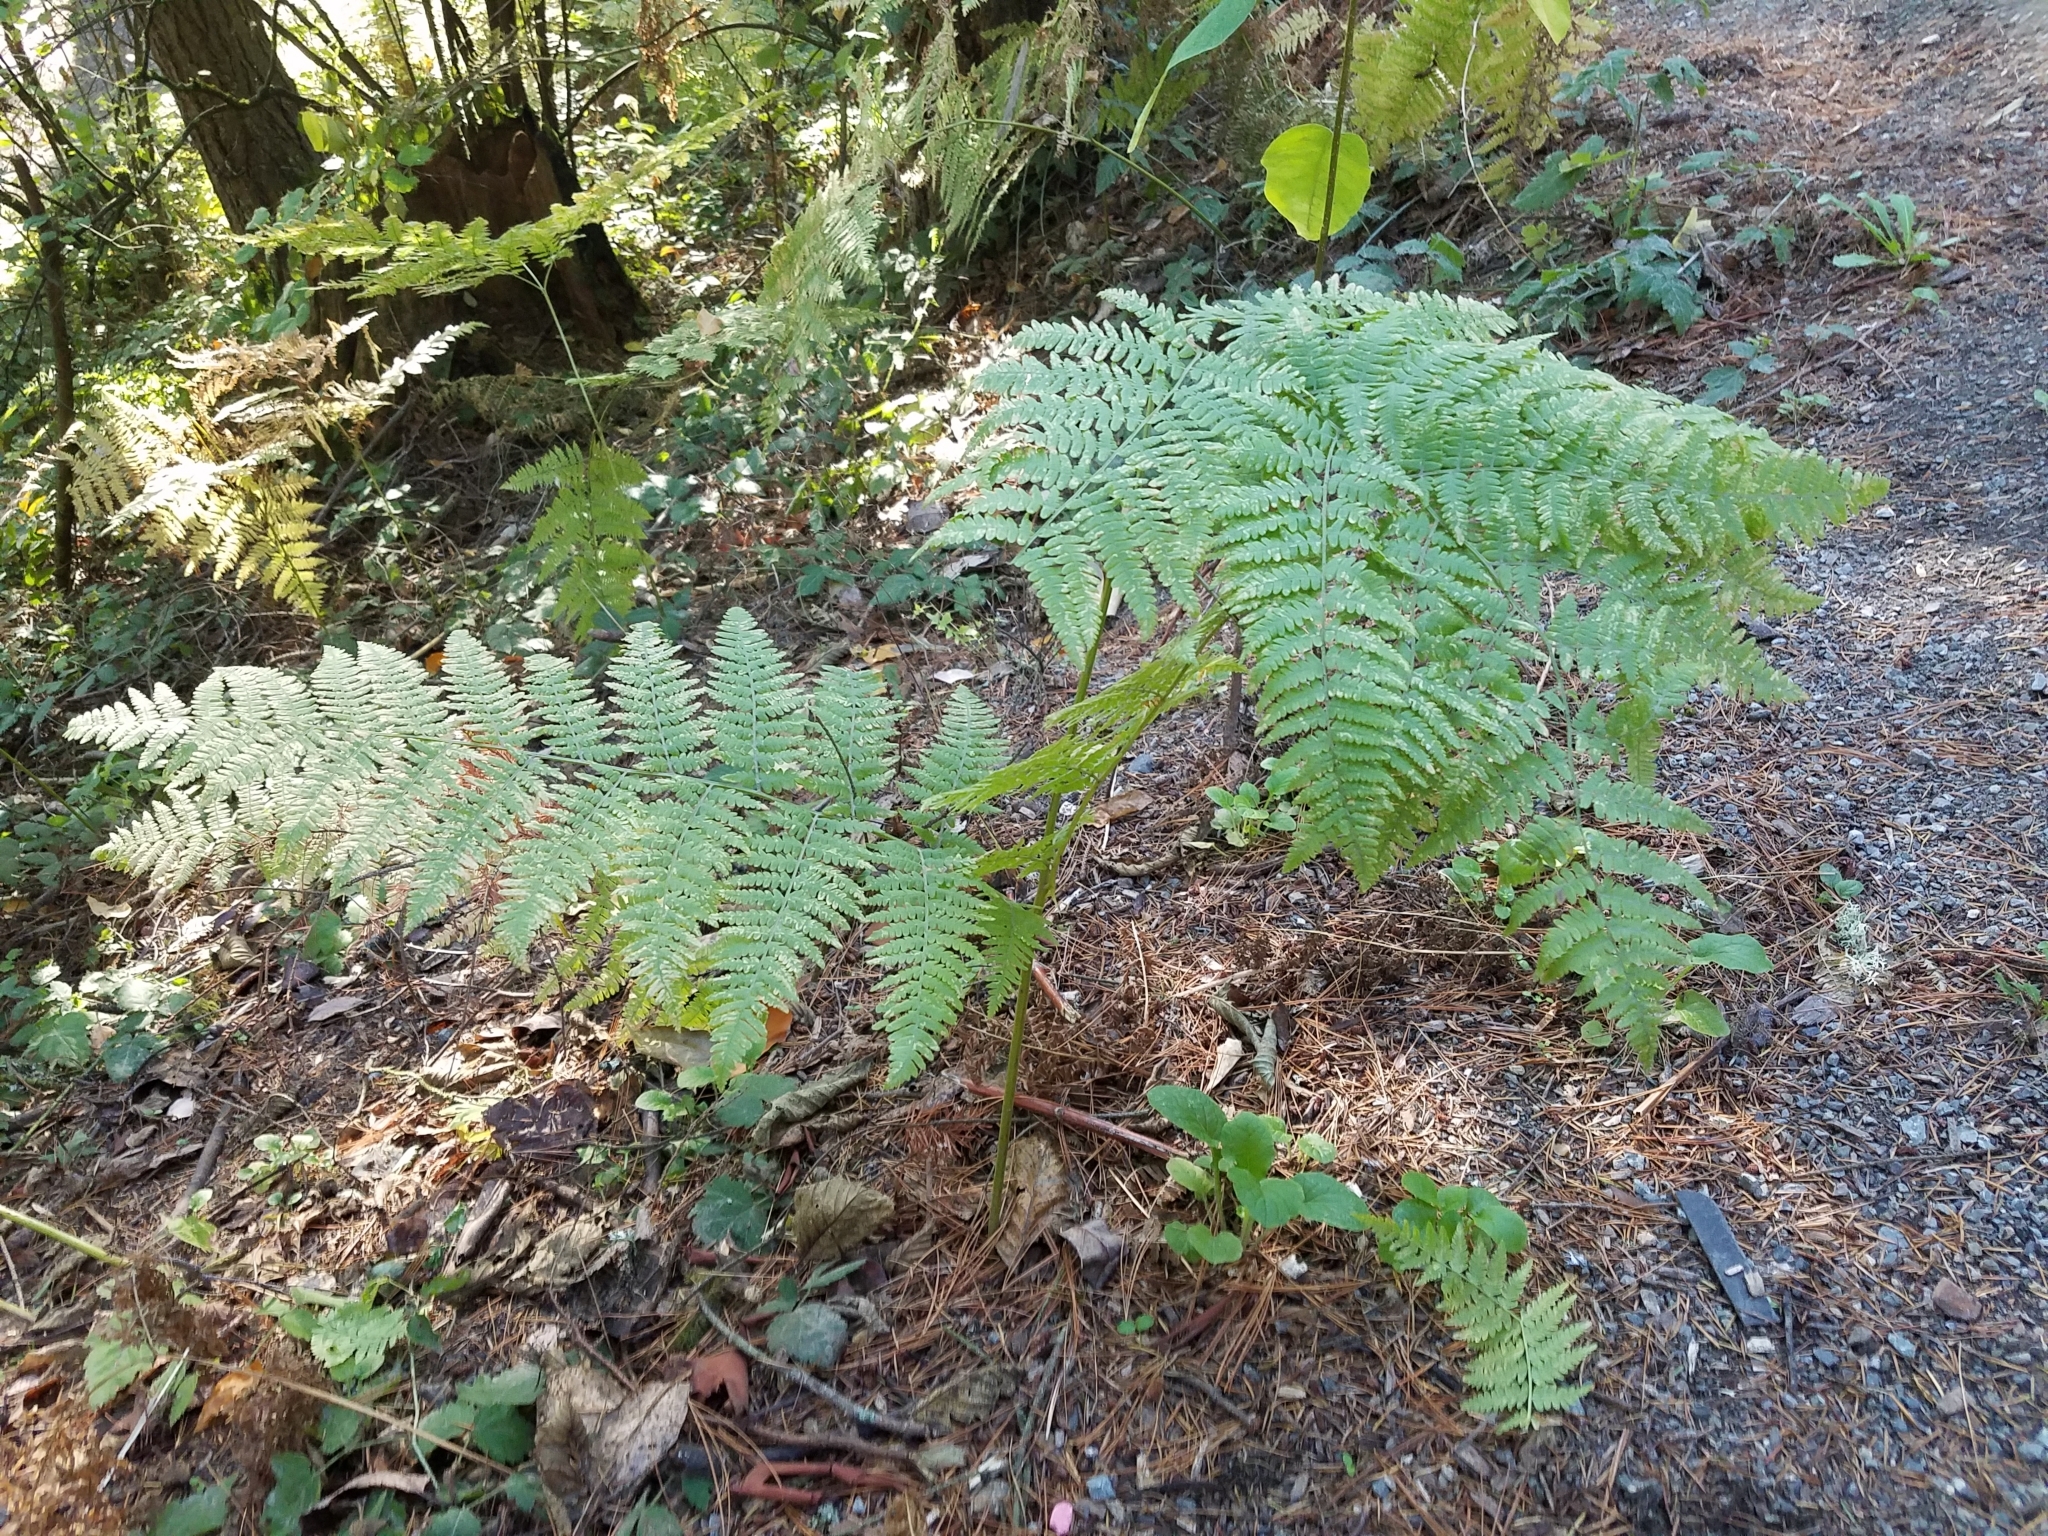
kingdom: Plantae
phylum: Tracheophyta
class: Polypodiopsida
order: Polypodiales
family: Dennstaedtiaceae
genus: Pteridium
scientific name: Pteridium aquilinum
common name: Bracken
